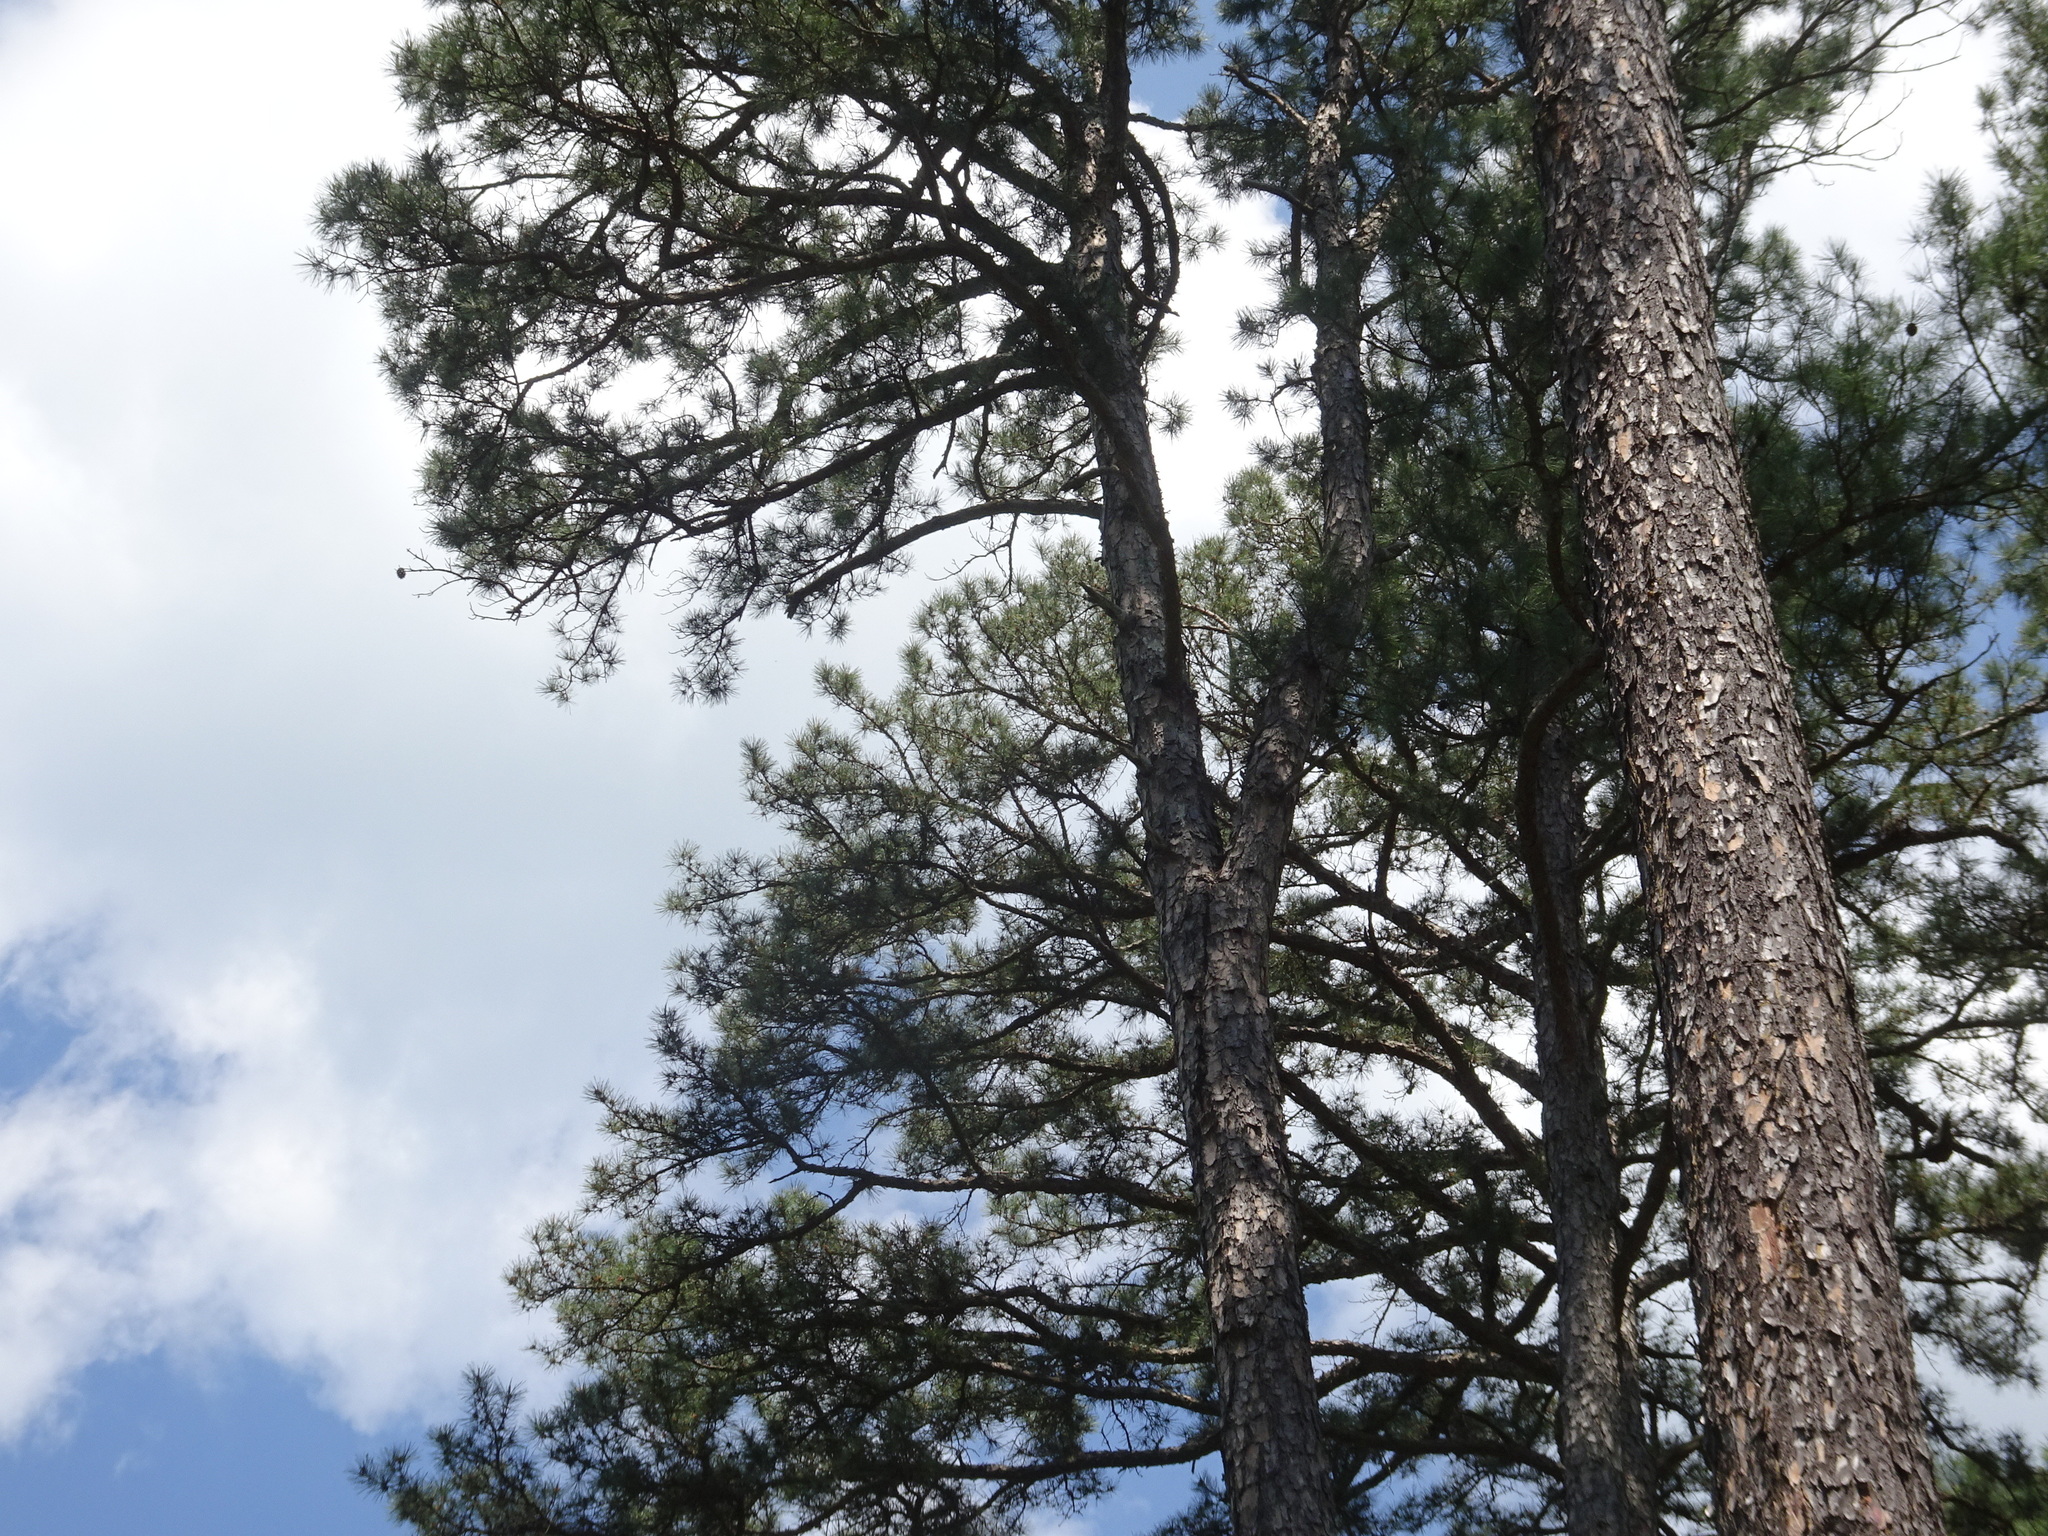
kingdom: Plantae
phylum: Tracheophyta
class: Pinopsida
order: Pinales
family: Pinaceae
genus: Pinus
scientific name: Pinus echinata
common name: Shortleaf pine
